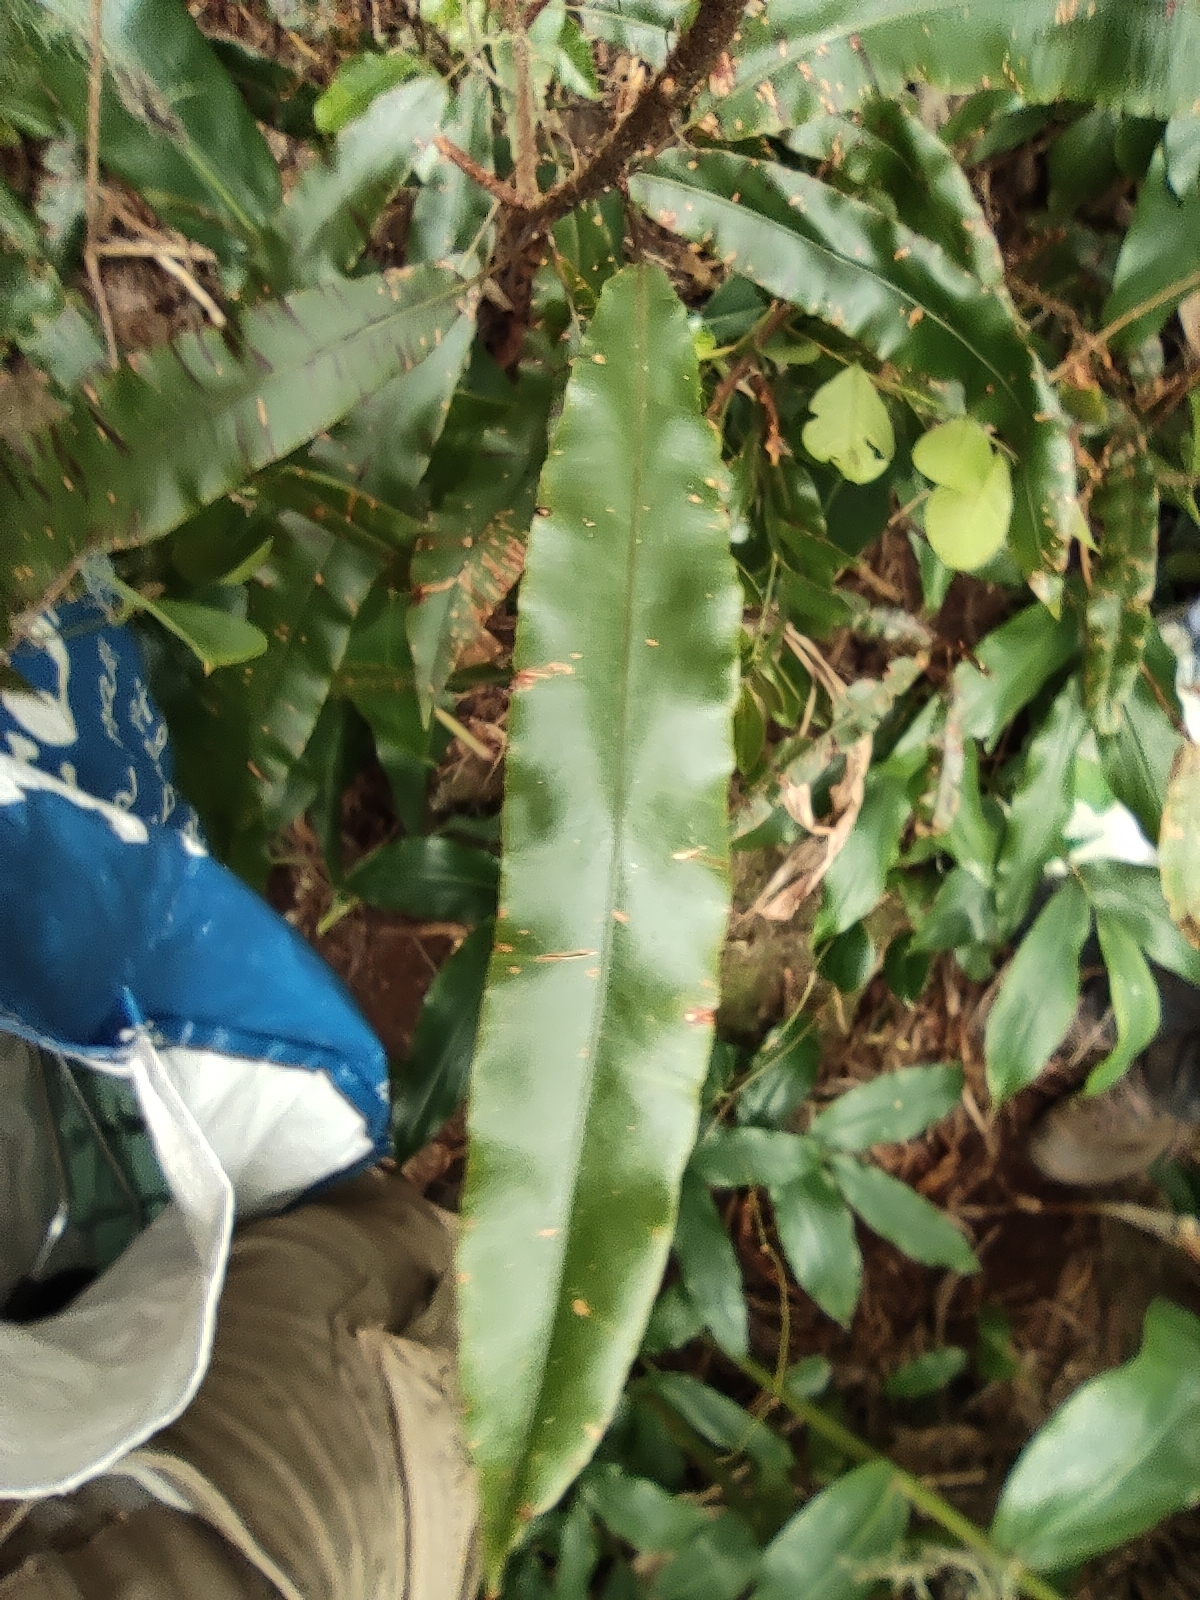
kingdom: Plantae
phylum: Tracheophyta
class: Polypodiopsida
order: Polypodiales
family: Oleandraceae
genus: Oleandra
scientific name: Oleandra distenta
